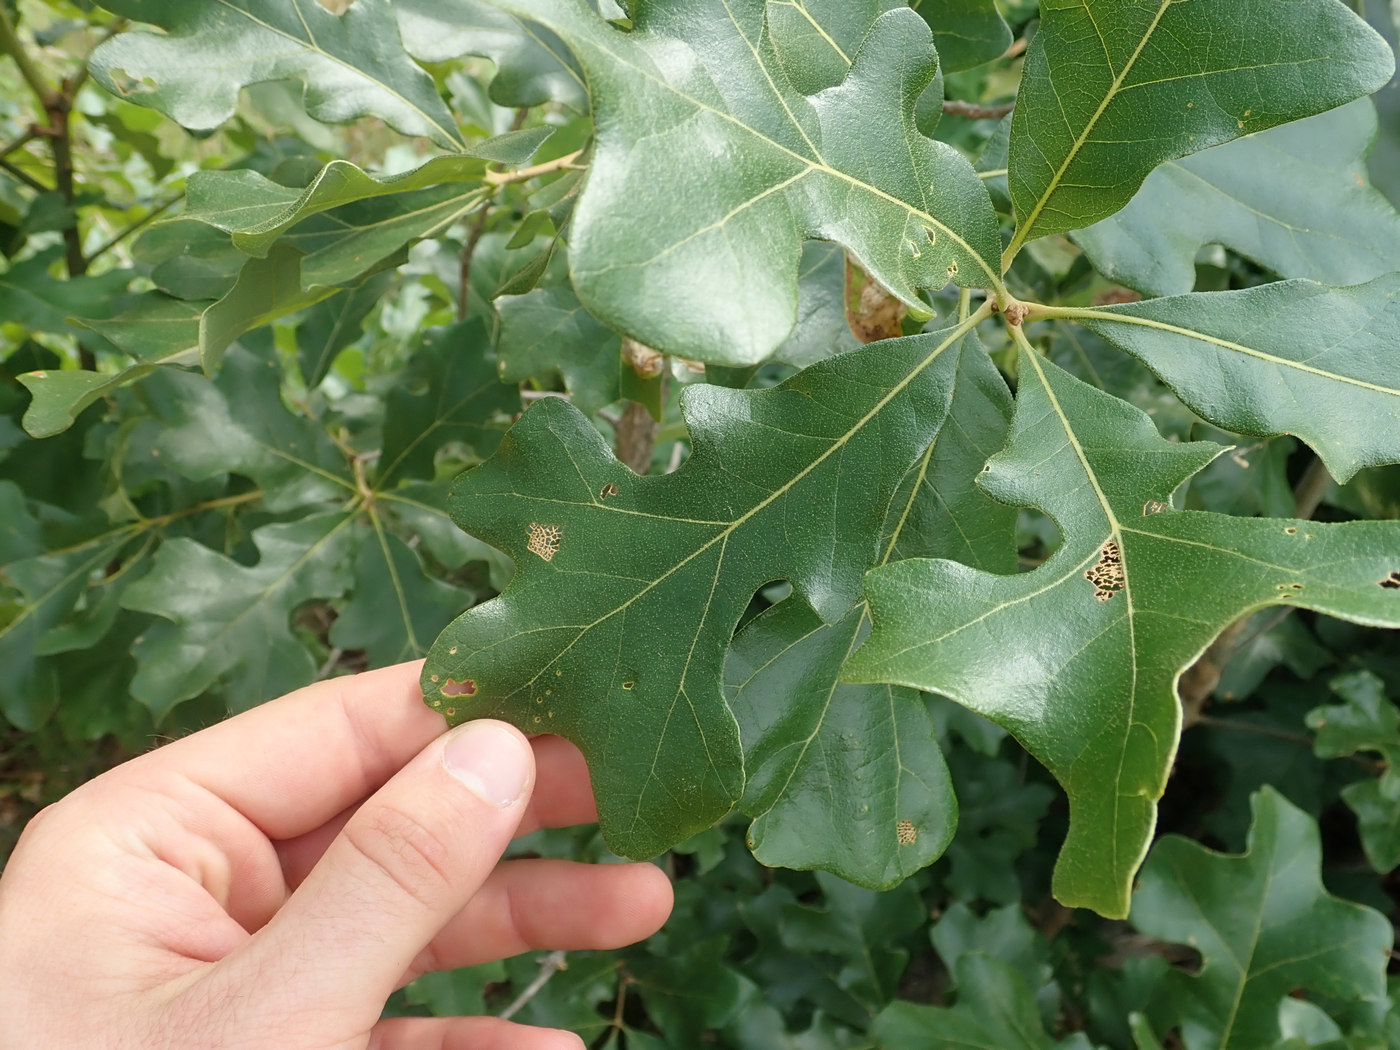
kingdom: Plantae
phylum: Tracheophyta
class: Magnoliopsida
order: Fagales
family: Fagaceae
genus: Quercus
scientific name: Quercus stellata
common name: Post oak
